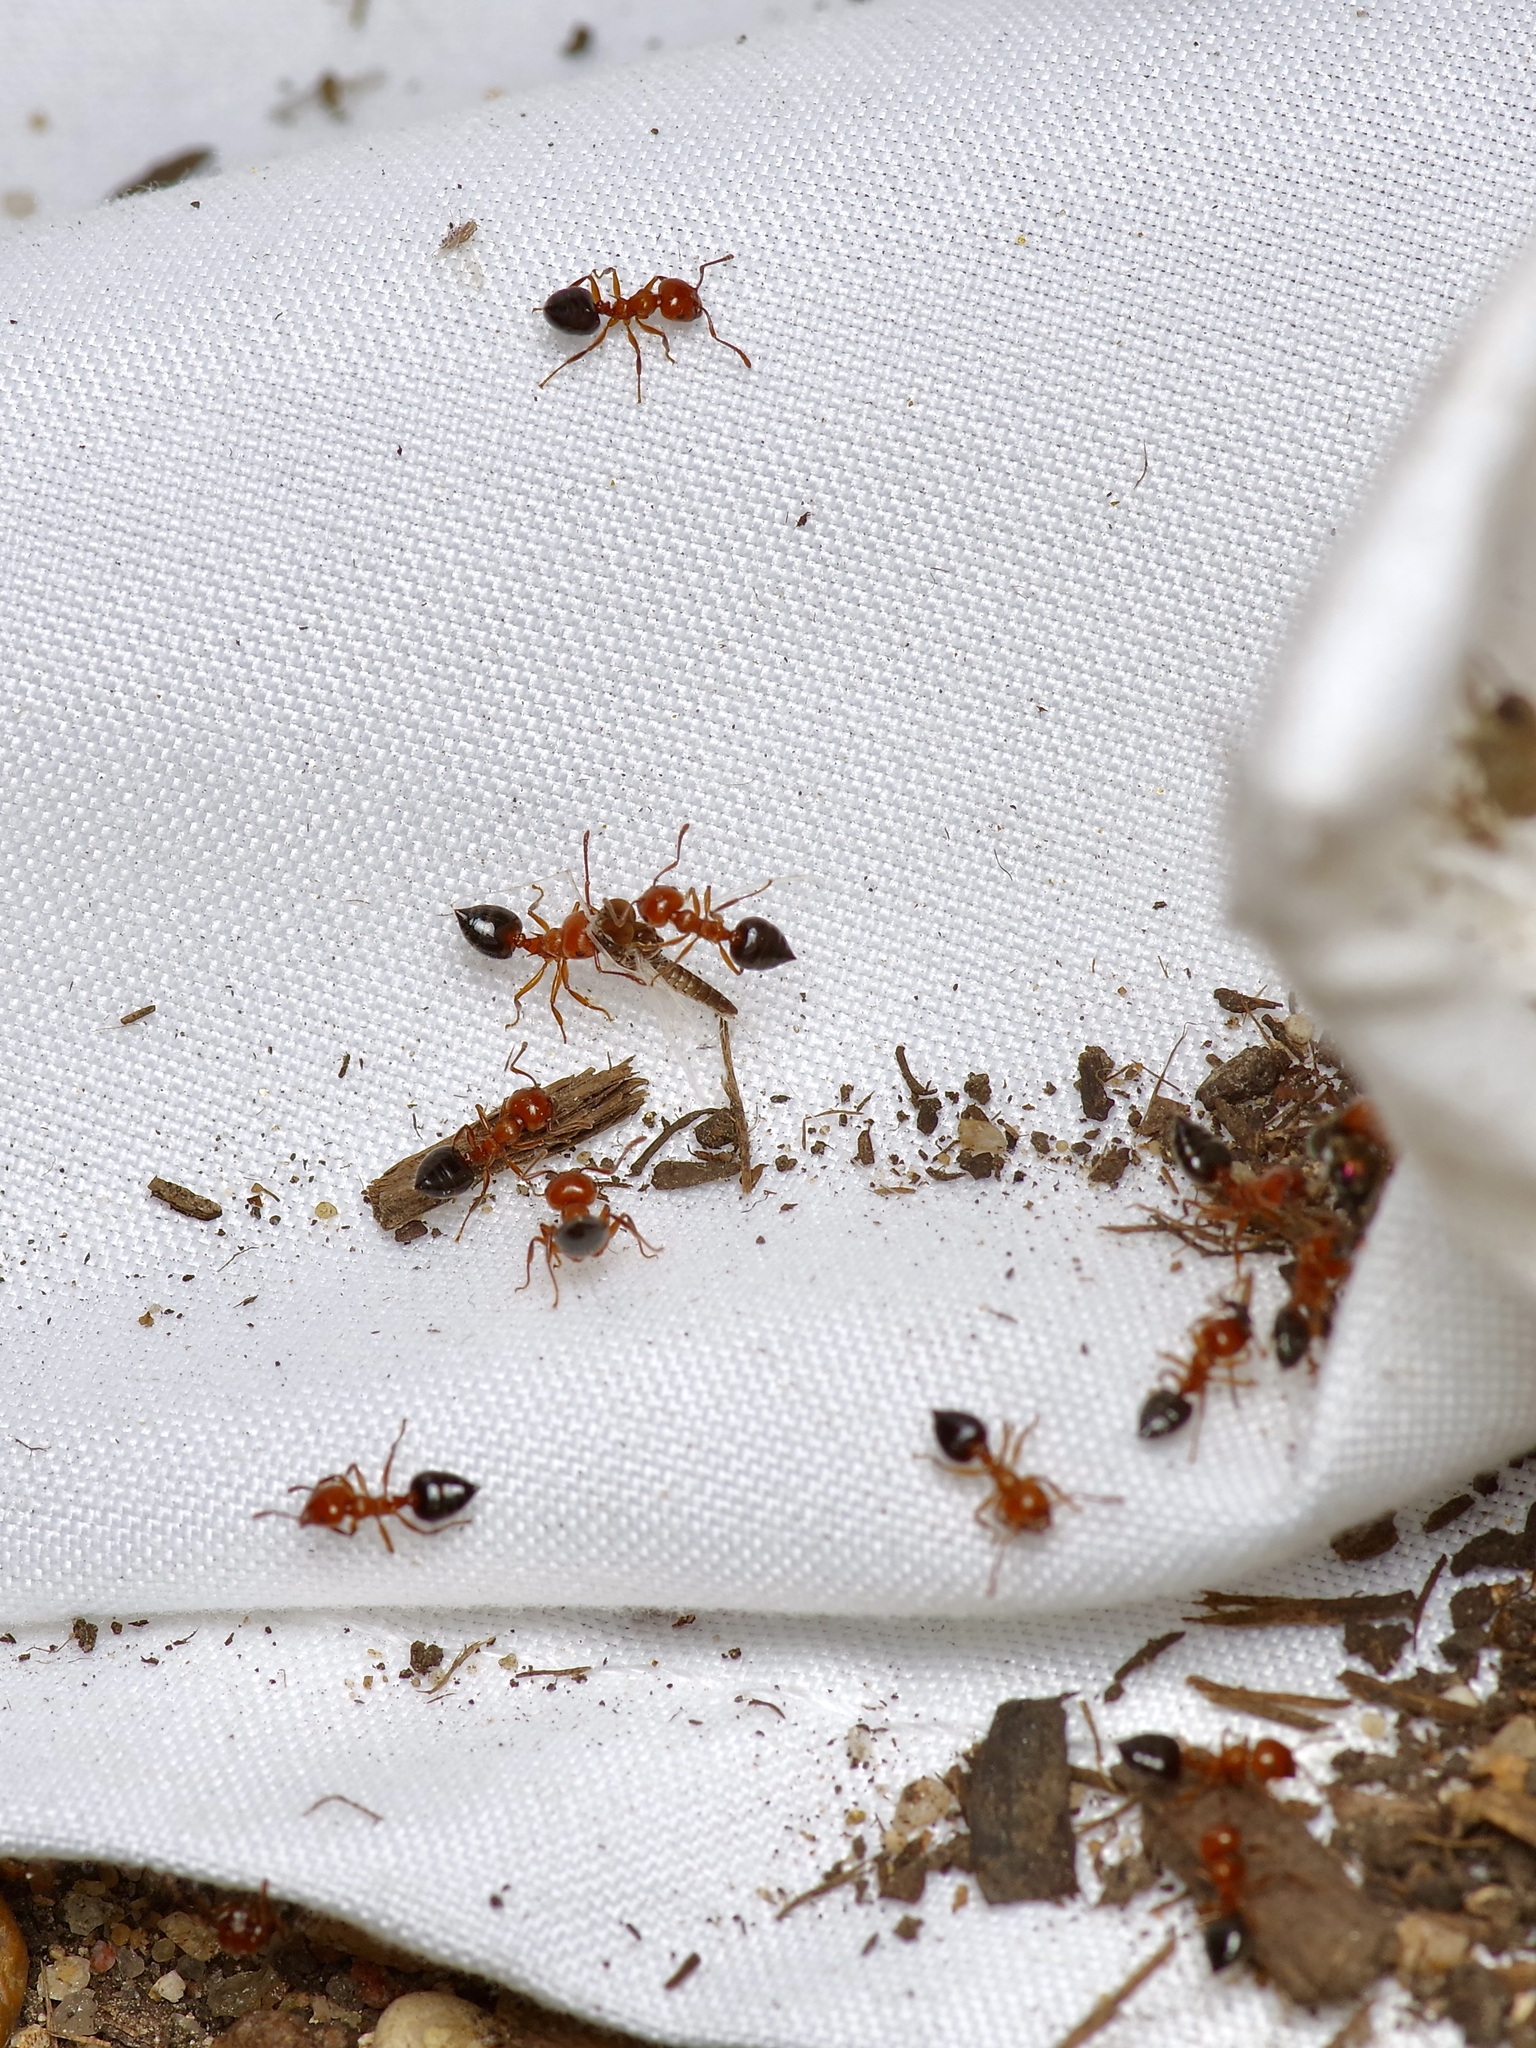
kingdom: Animalia
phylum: Arthropoda
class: Insecta
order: Hymenoptera
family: Formicidae
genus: Crematogaster
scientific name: Crematogaster laeviuscula
